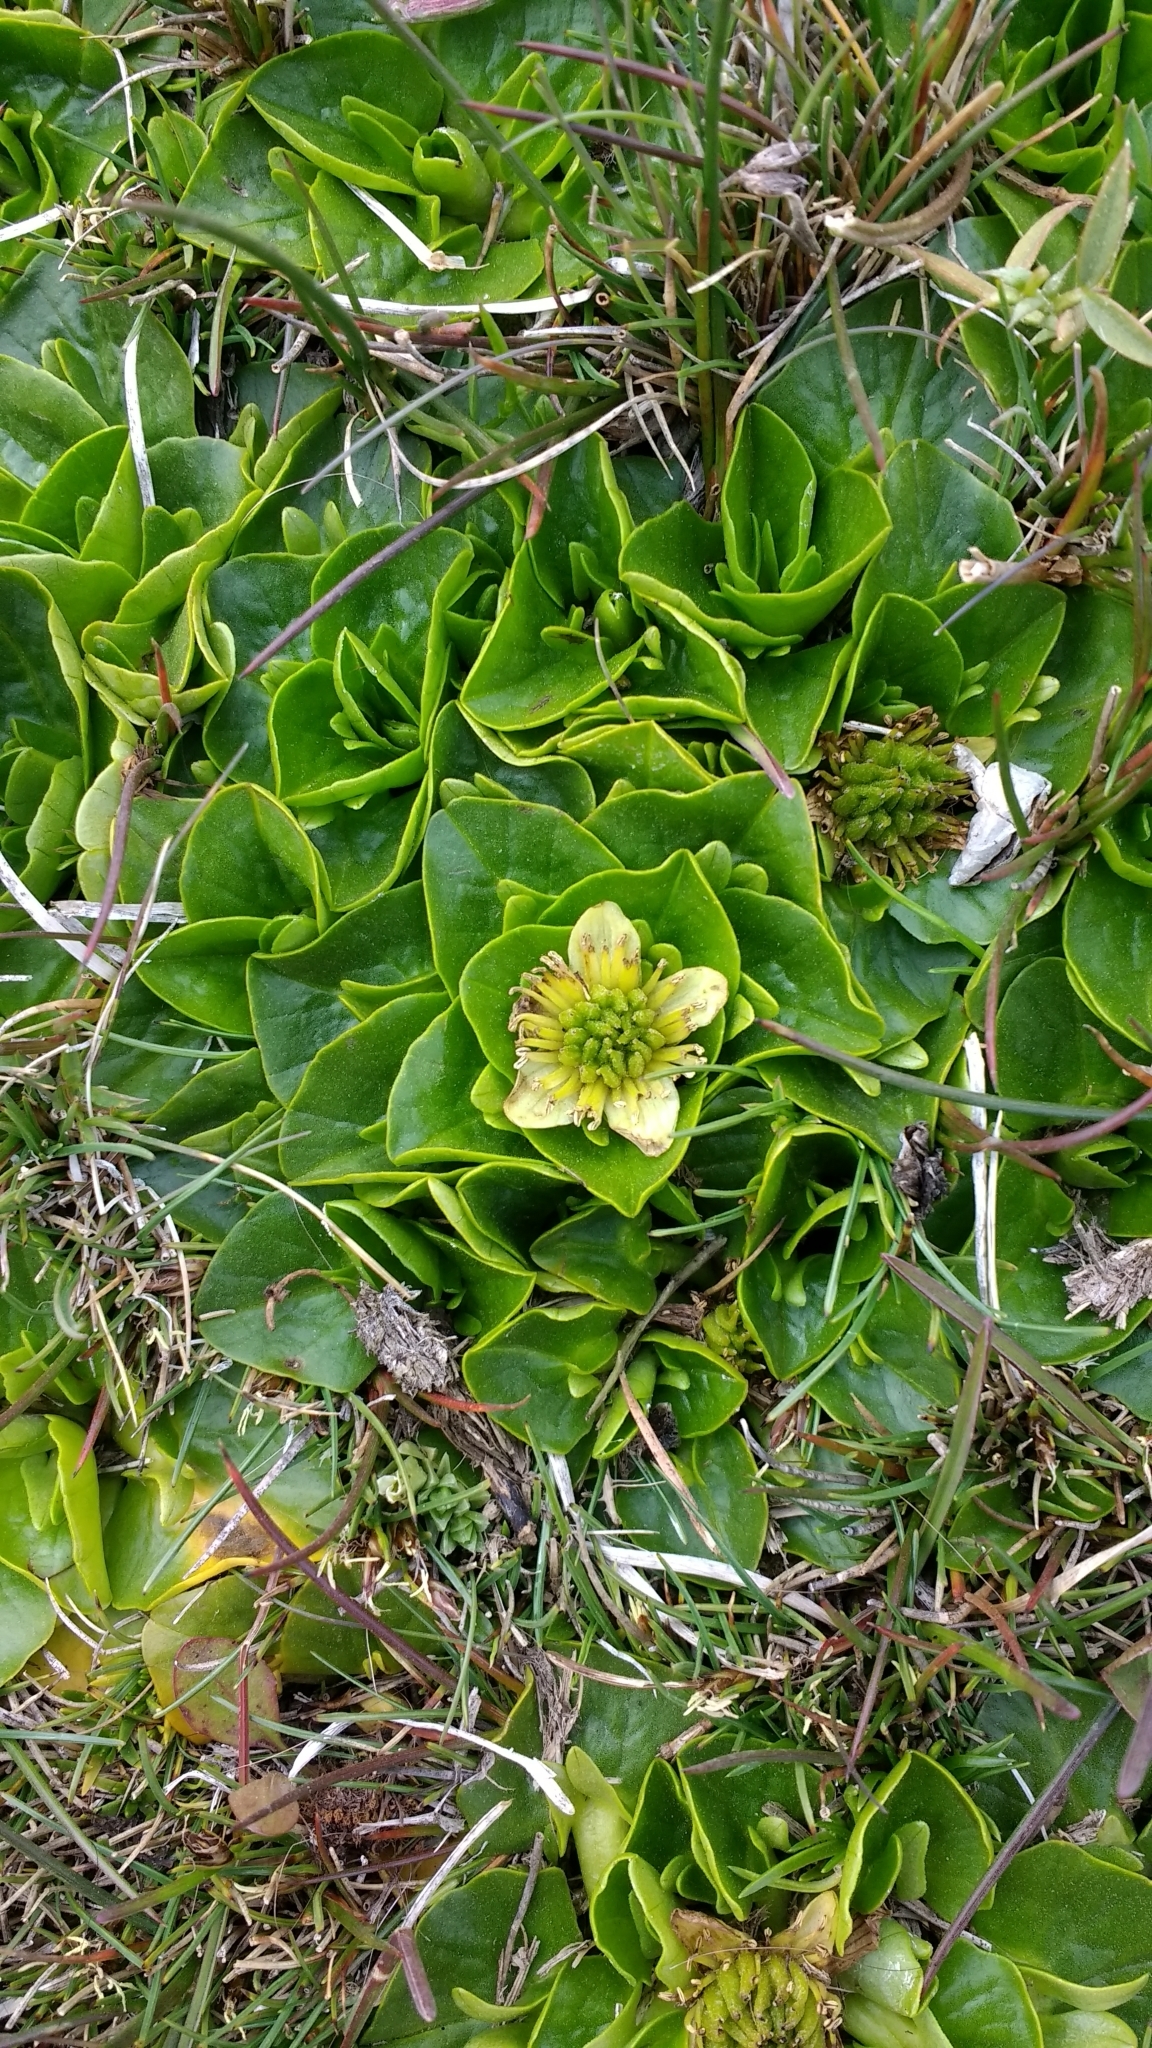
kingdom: Plantae
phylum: Tracheophyta
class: Magnoliopsida
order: Ranunculales
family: Ranunculaceae
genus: Caltha
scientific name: Caltha sagittata
